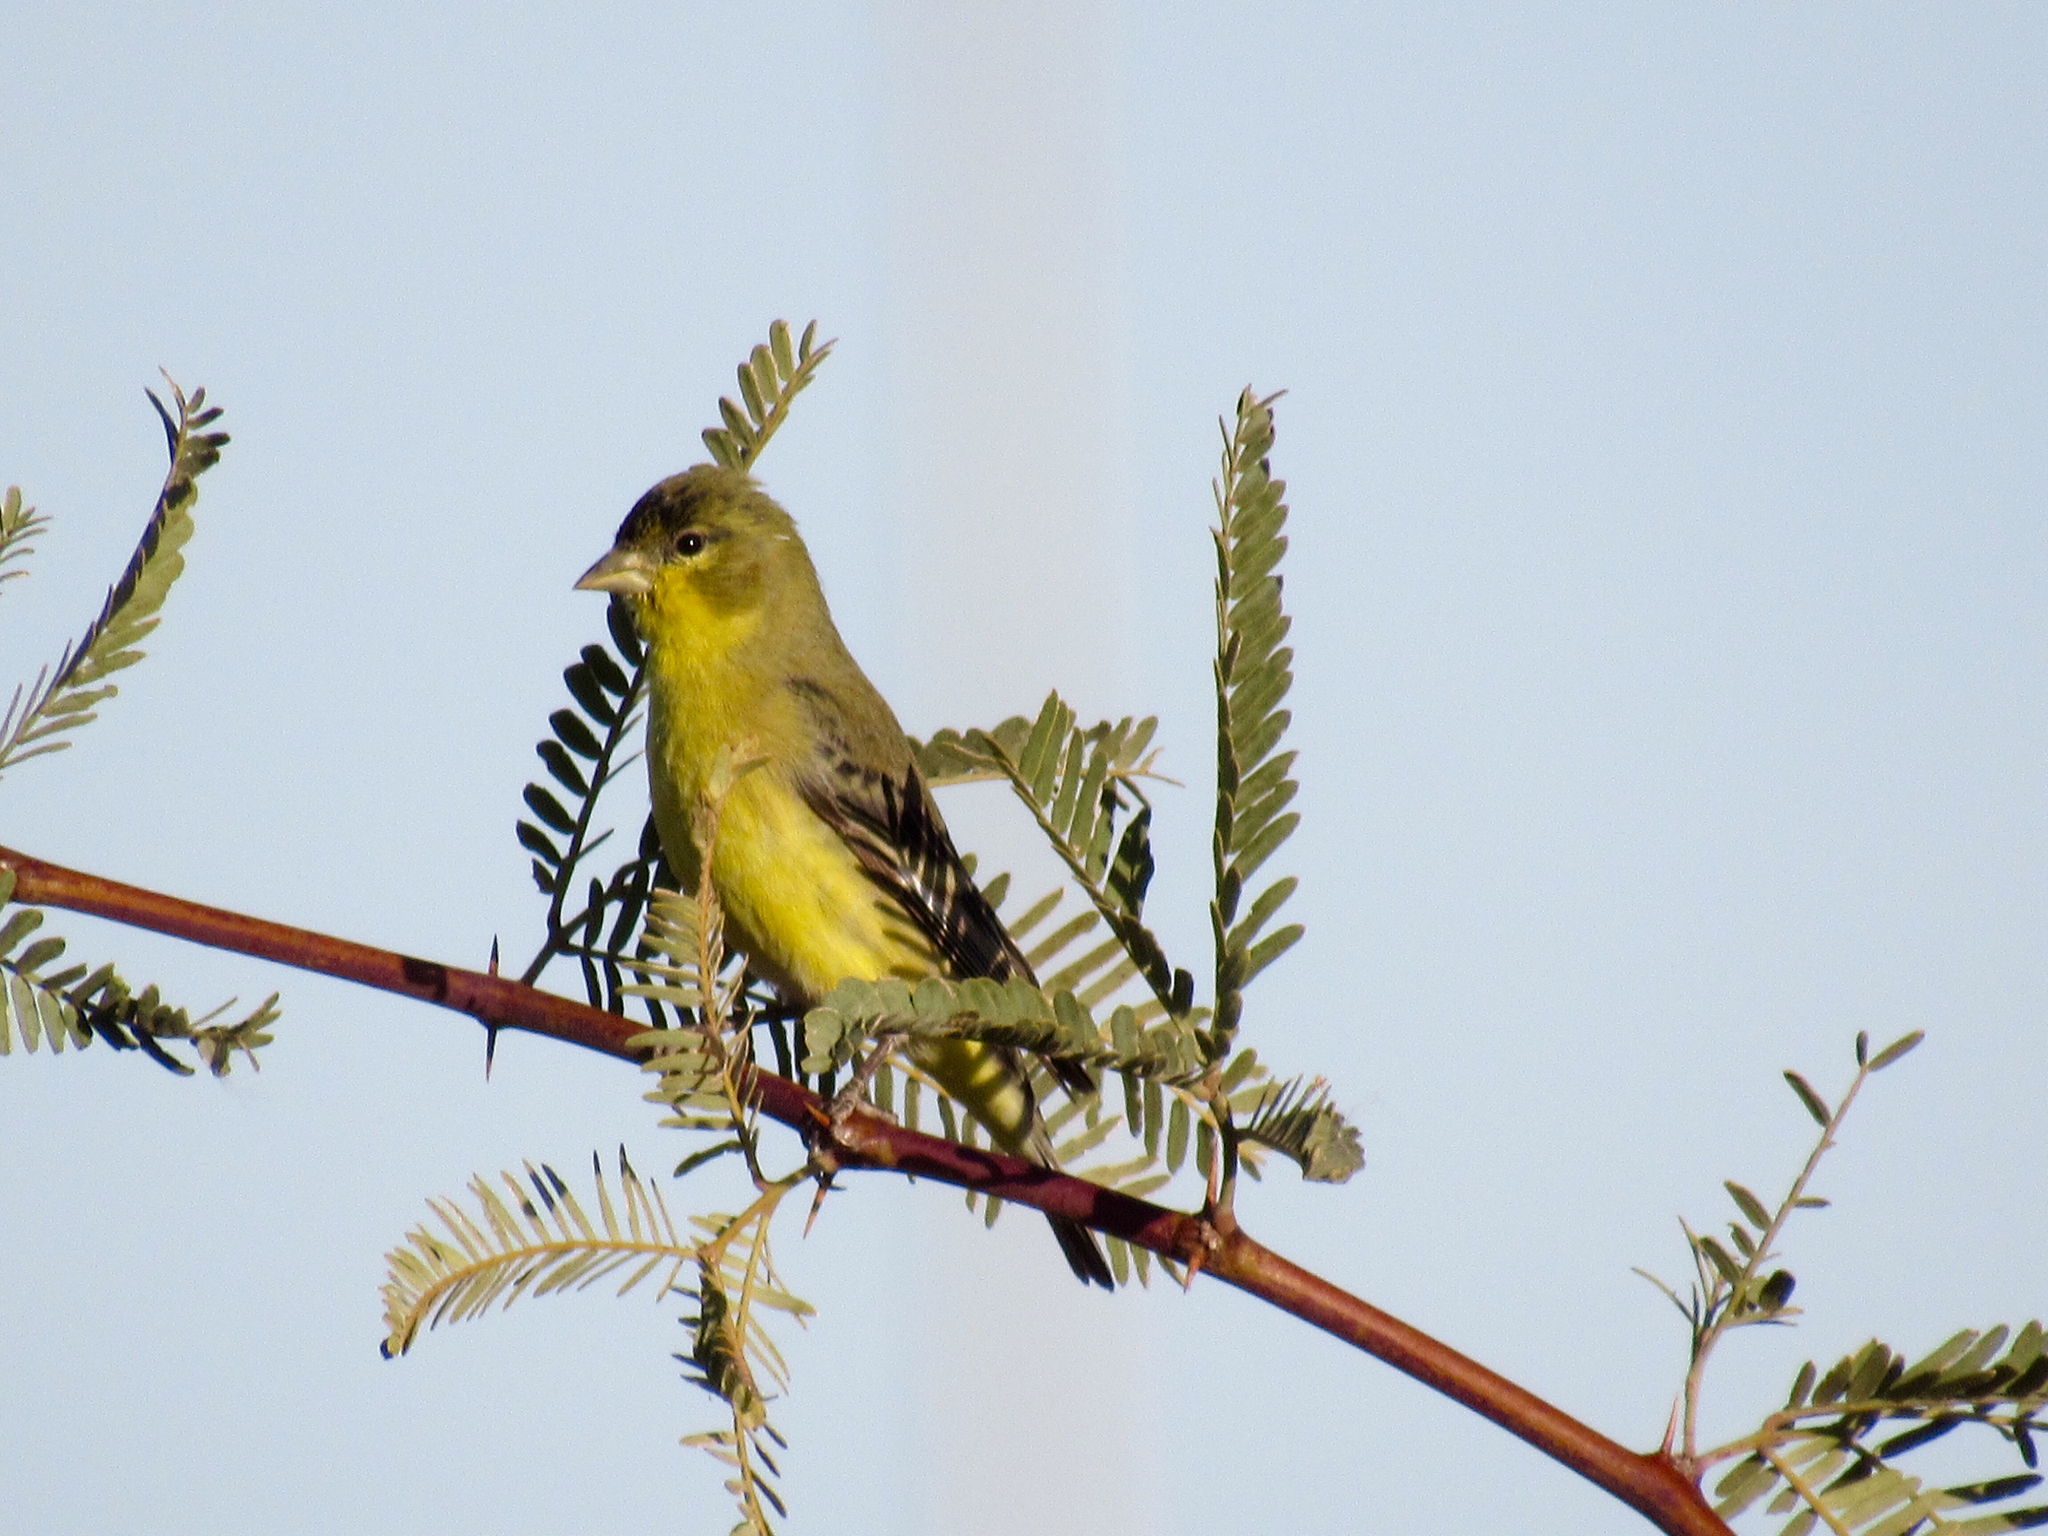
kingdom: Animalia
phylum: Chordata
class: Aves
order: Passeriformes
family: Fringillidae
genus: Spinus
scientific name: Spinus psaltria
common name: Lesser goldfinch
